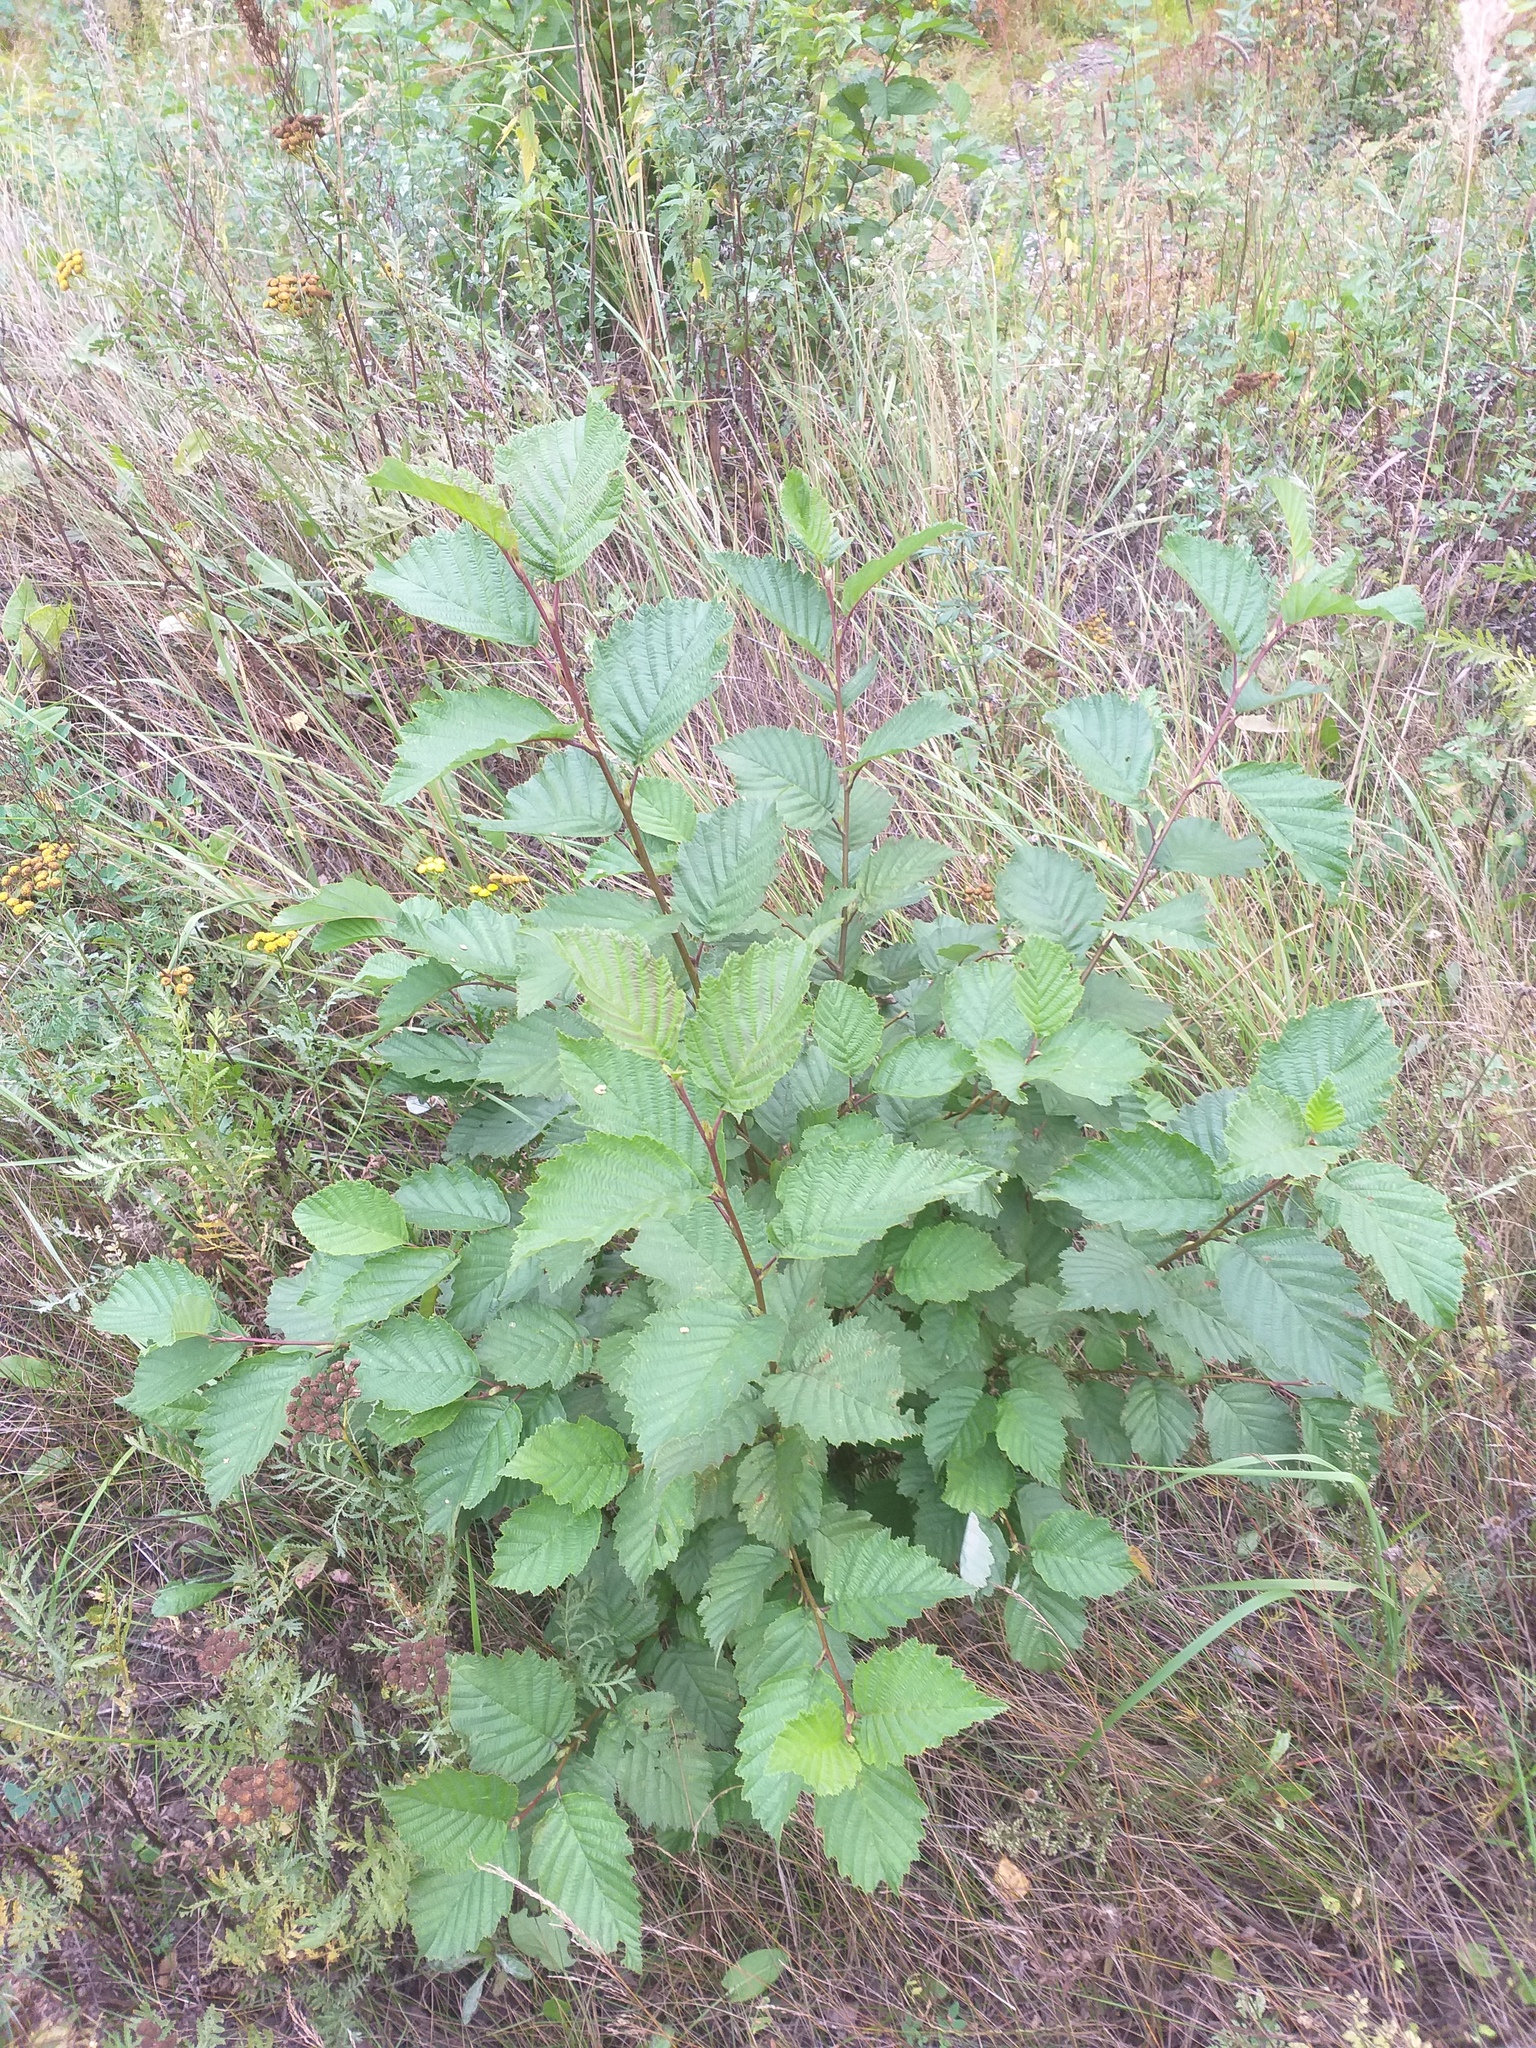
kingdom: Plantae
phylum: Tracheophyta
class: Magnoliopsida
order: Fagales
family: Betulaceae
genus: Alnus
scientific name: Alnus incana
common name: Grey alder
